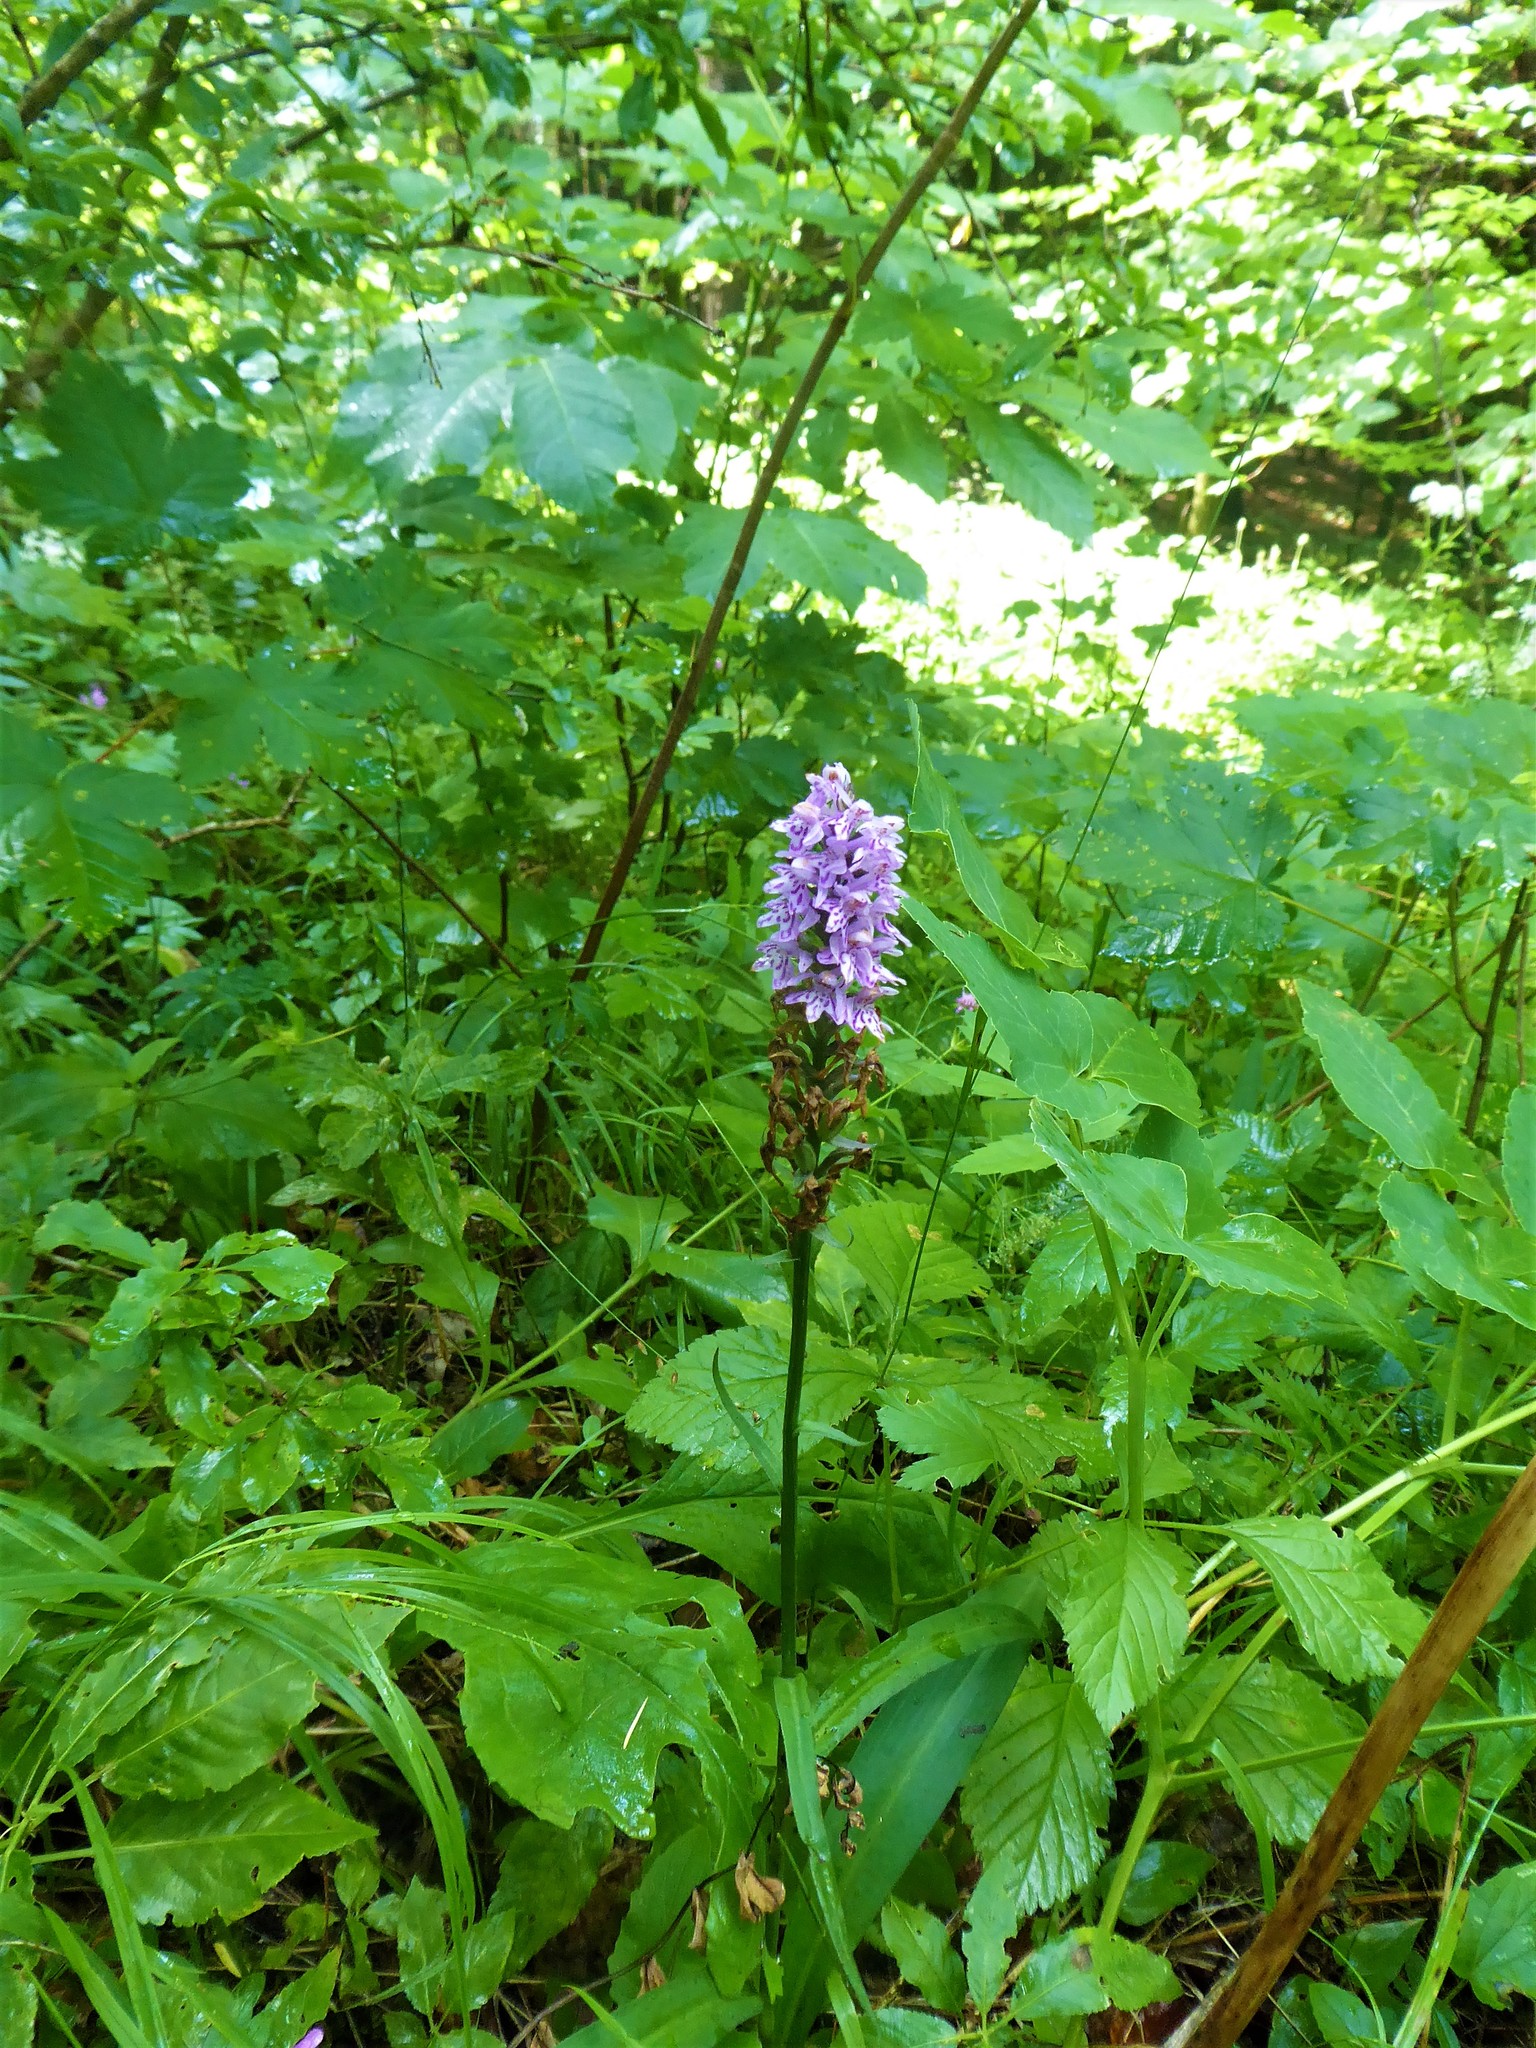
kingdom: Plantae
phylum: Tracheophyta
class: Liliopsida
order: Asparagales
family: Orchidaceae
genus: Dactylorhiza
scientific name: Dactylorhiza maculata
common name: Heath spotted-orchid
